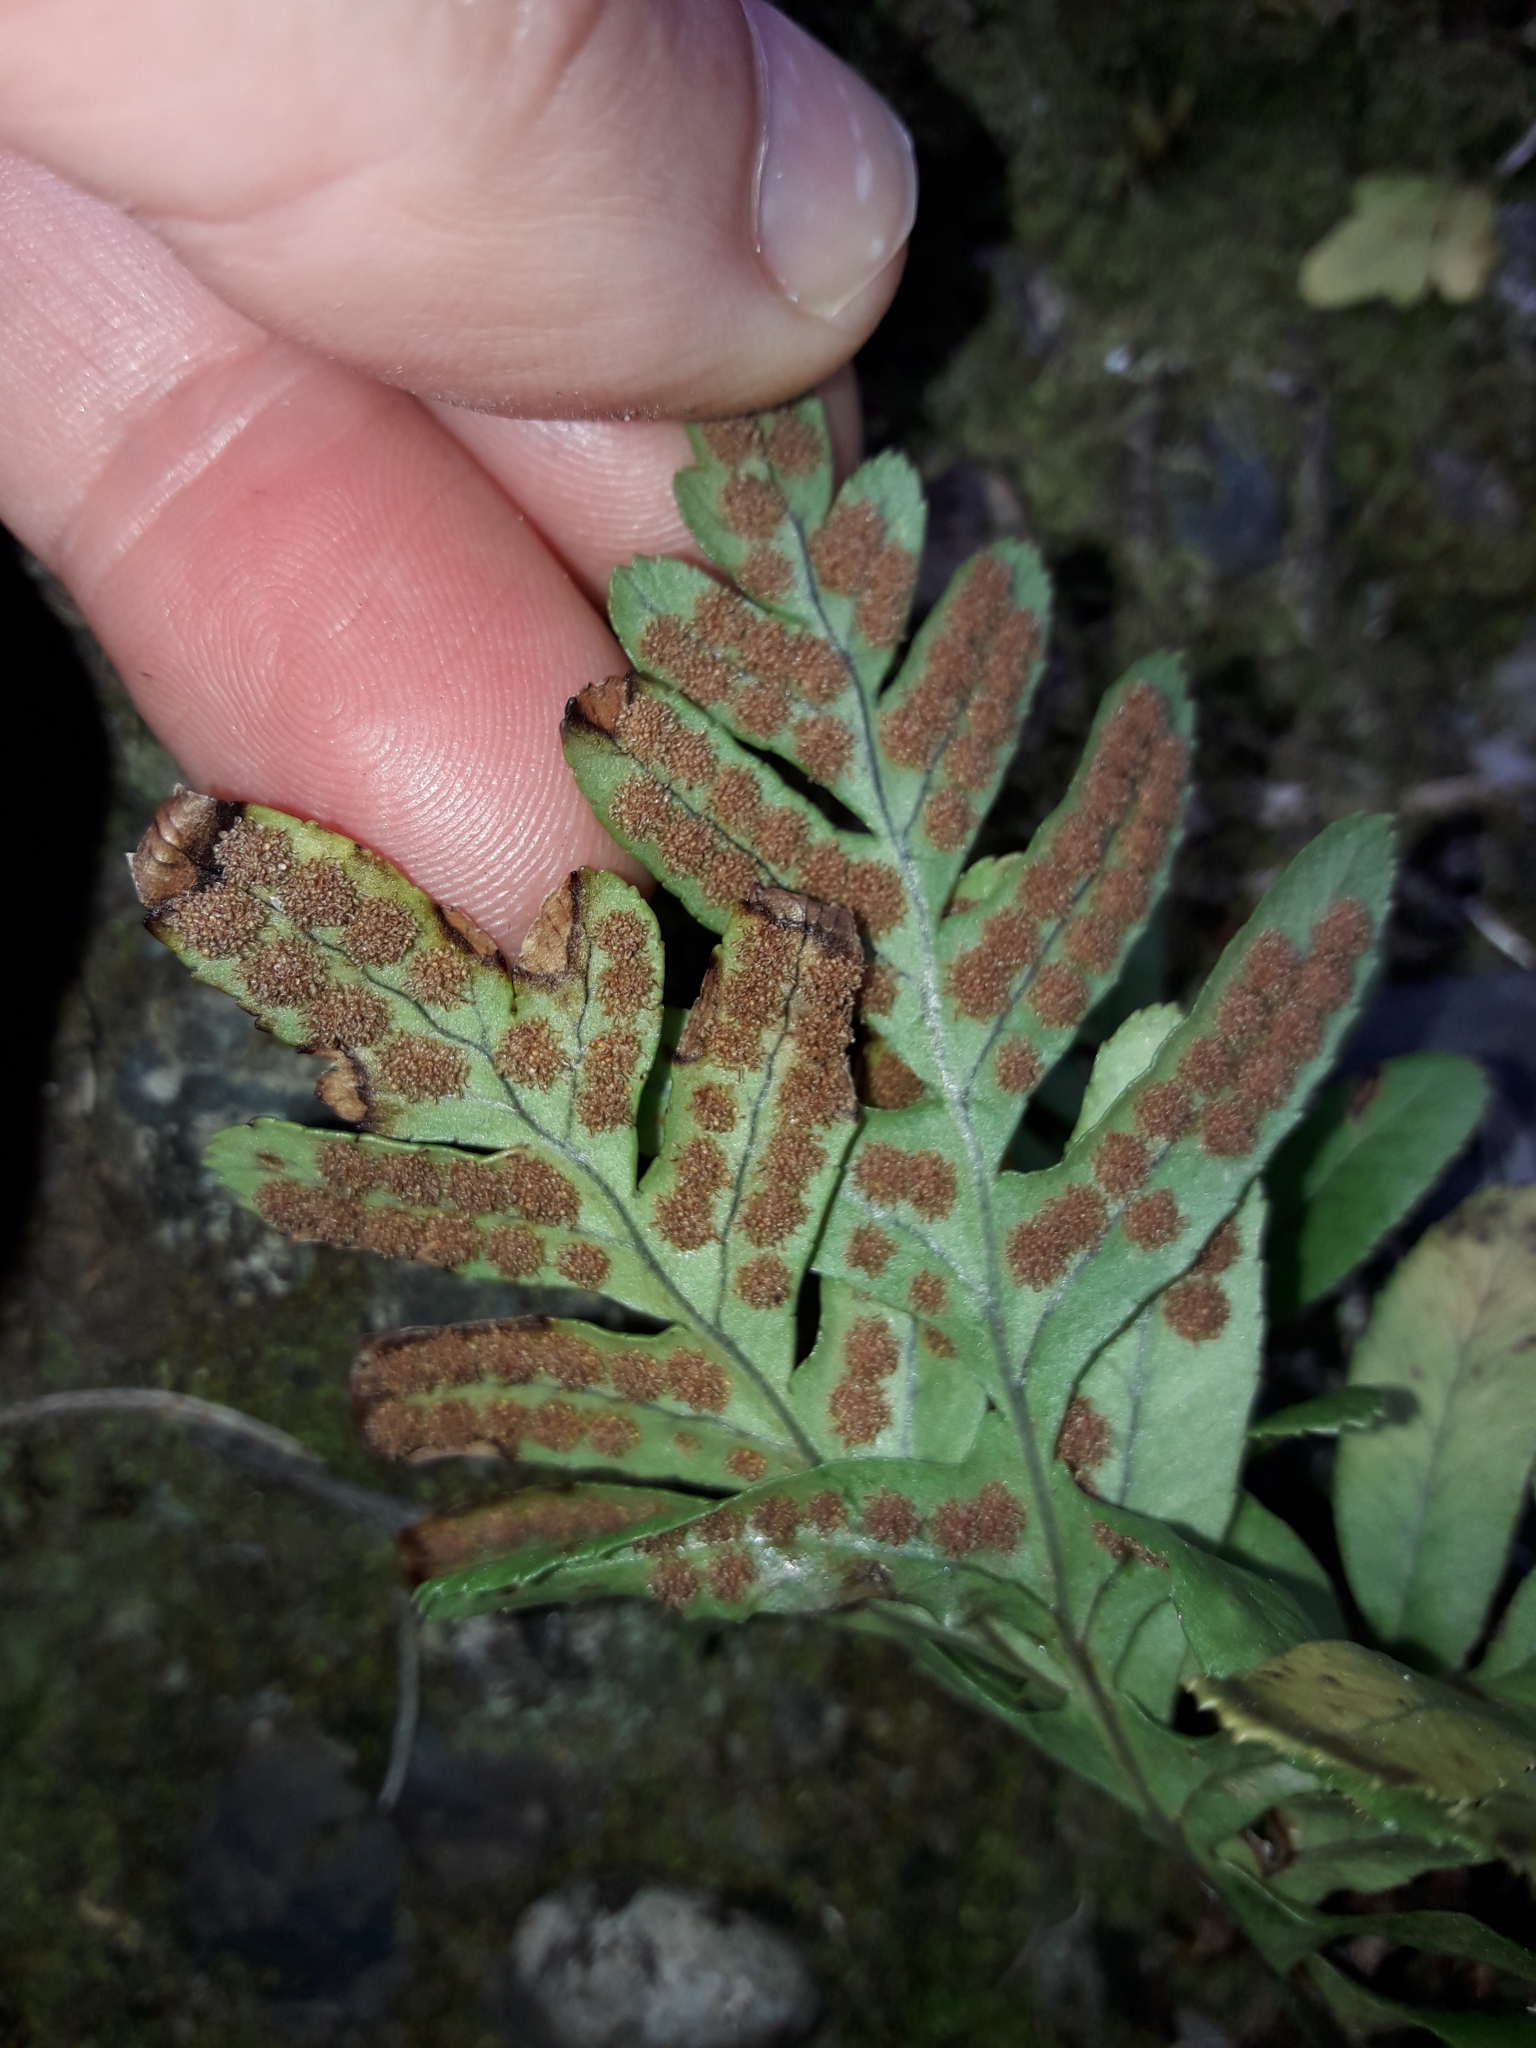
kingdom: Plantae
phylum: Tracheophyta
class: Polypodiopsida
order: Polypodiales
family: Polypodiaceae
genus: Polypodium
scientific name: Polypodium vulgare
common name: Common polypody
